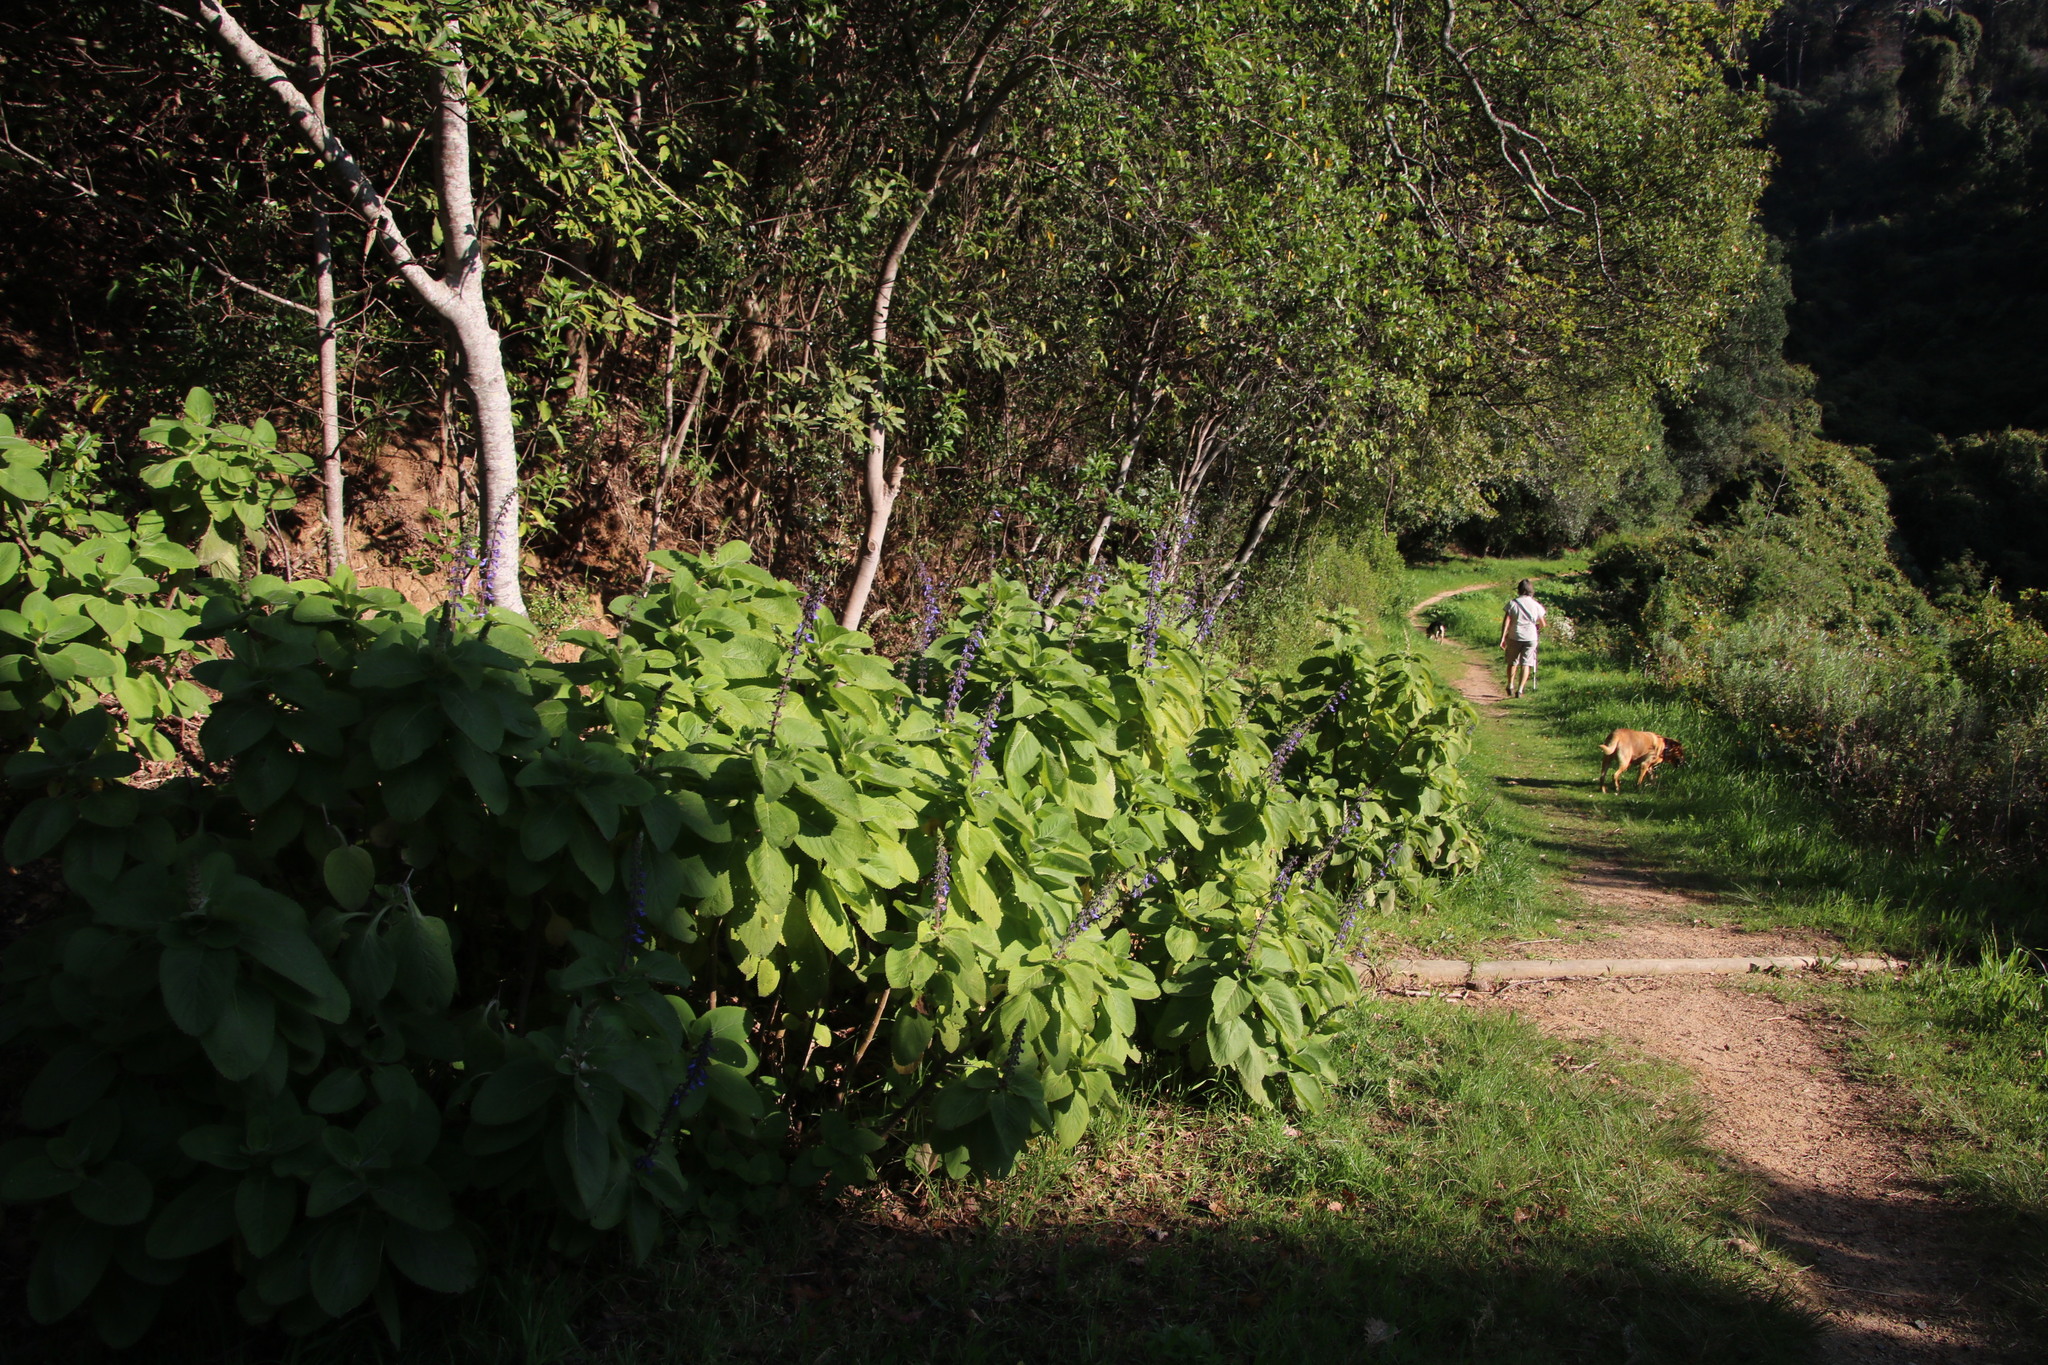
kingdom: Plantae
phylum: Tracheophyta
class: Magnoliopsida
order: Lamiales
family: Lamiaceae
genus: Coleus
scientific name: Coleus barbatus
